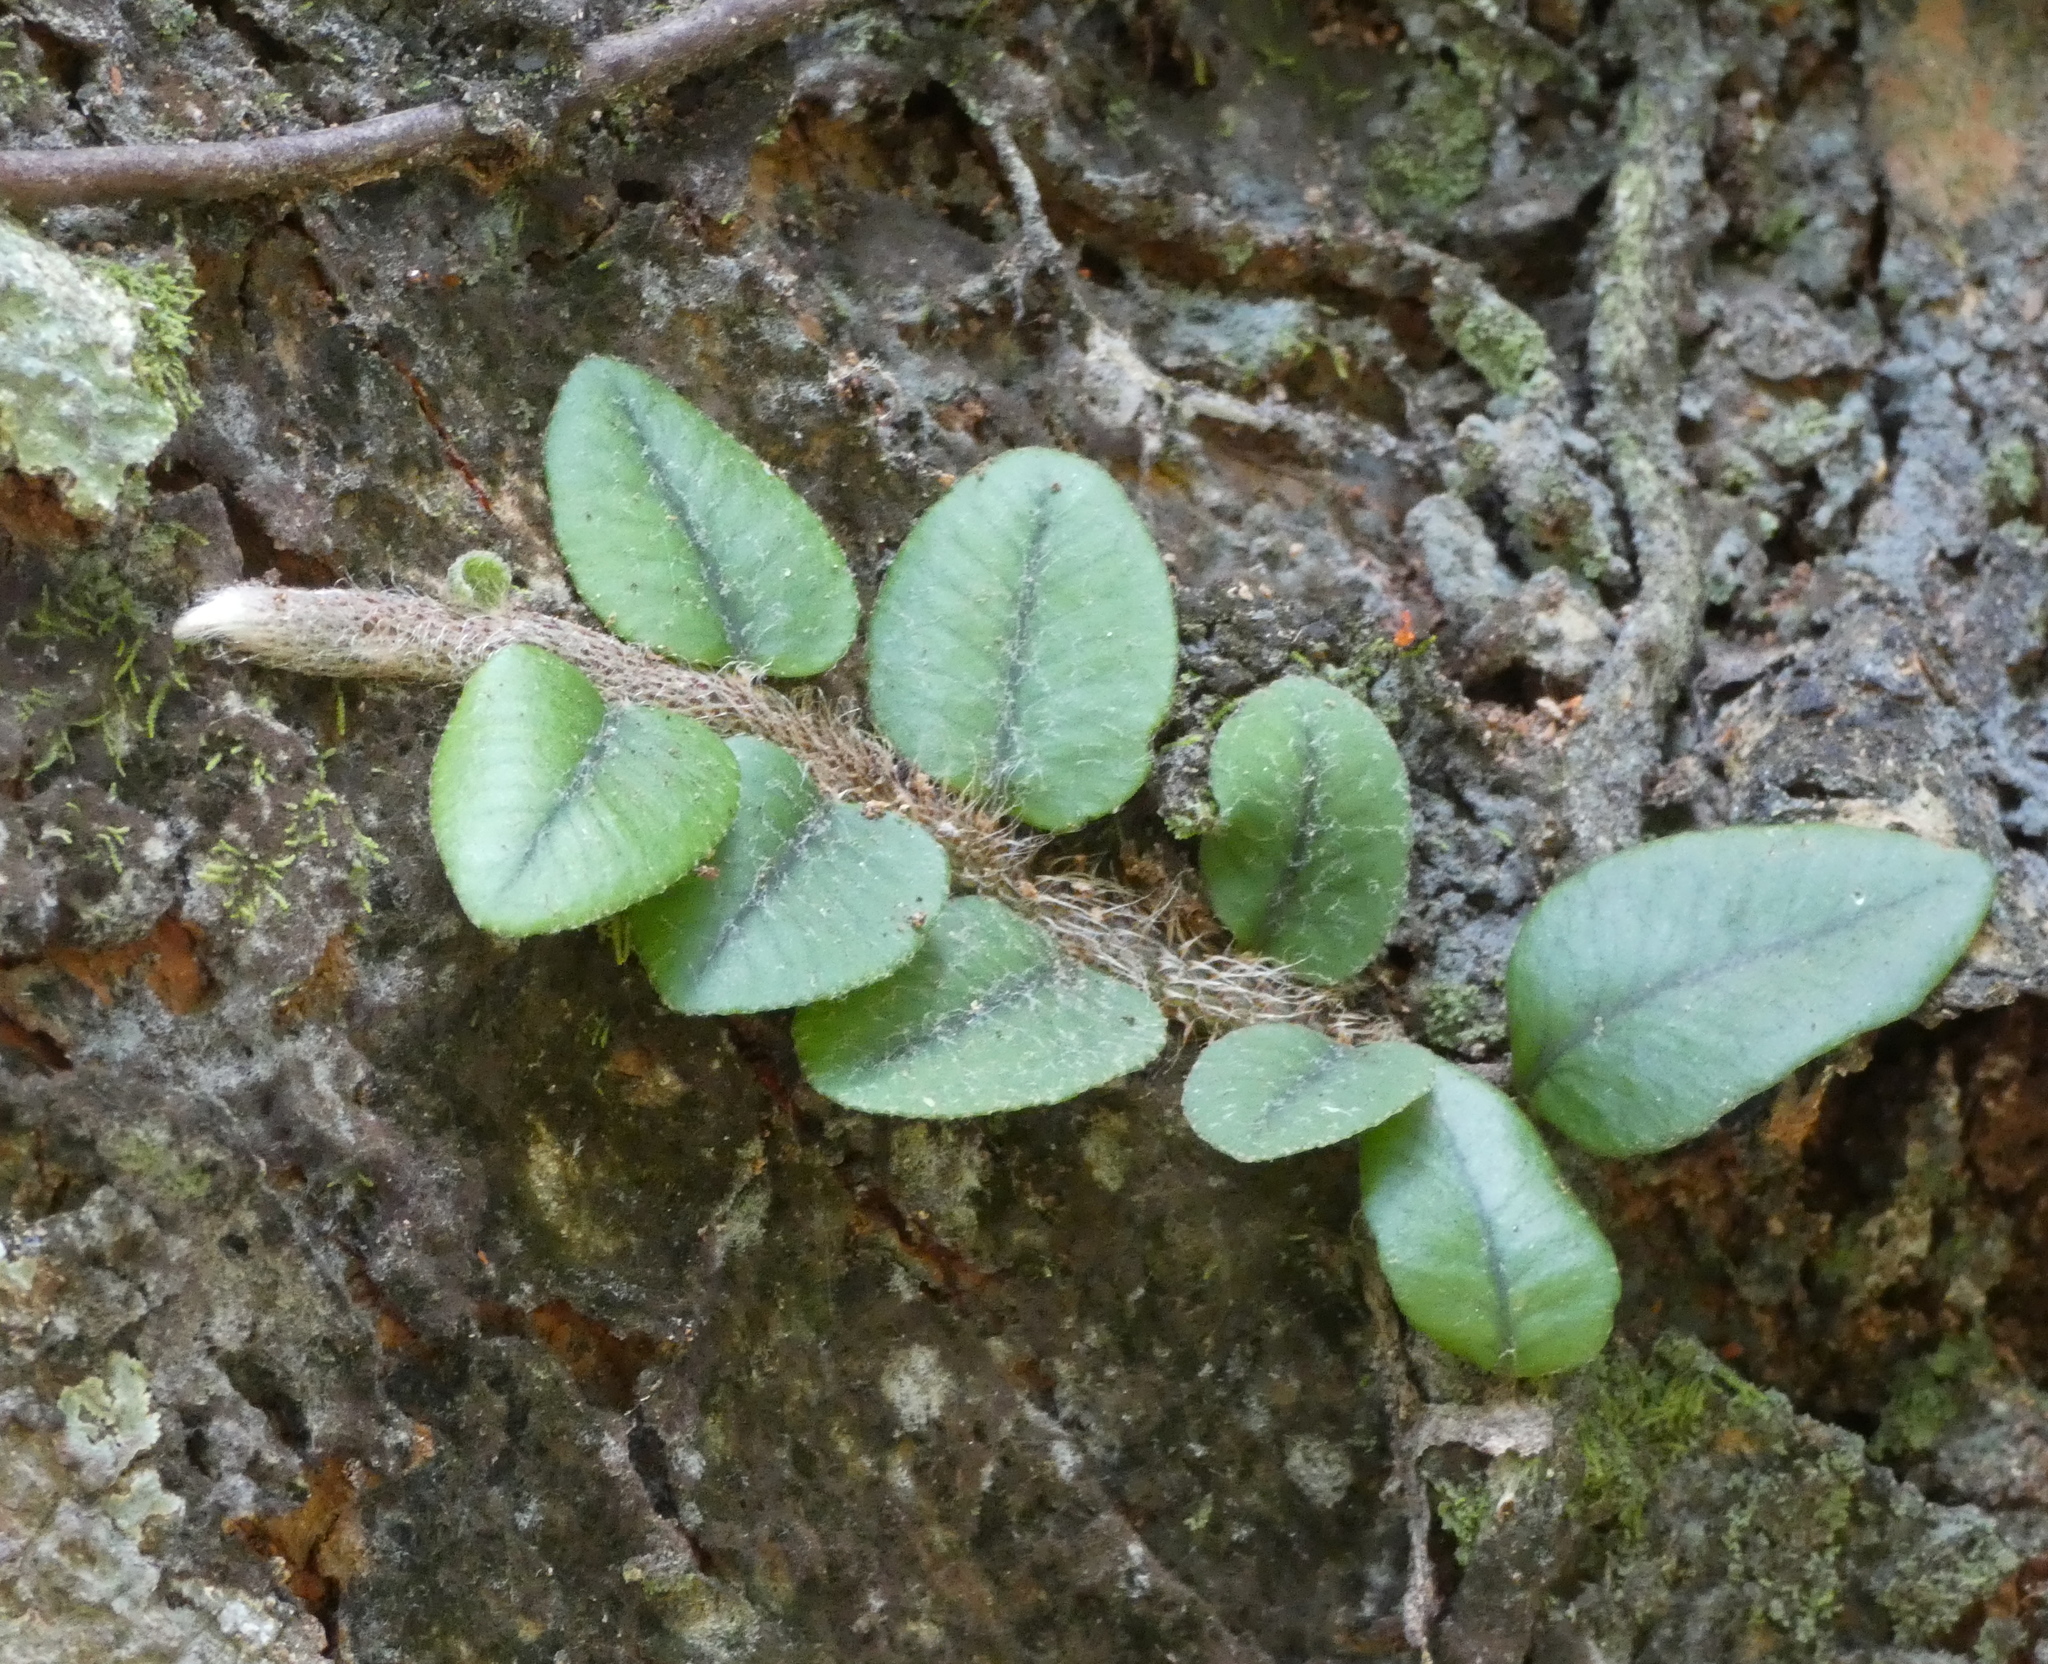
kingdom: Plantae
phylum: Tracheophyta
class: Polypodiopsida
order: Polypodiales
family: Polypodiaceae
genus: Microgramma
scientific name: Microgramma vaccinifolia
